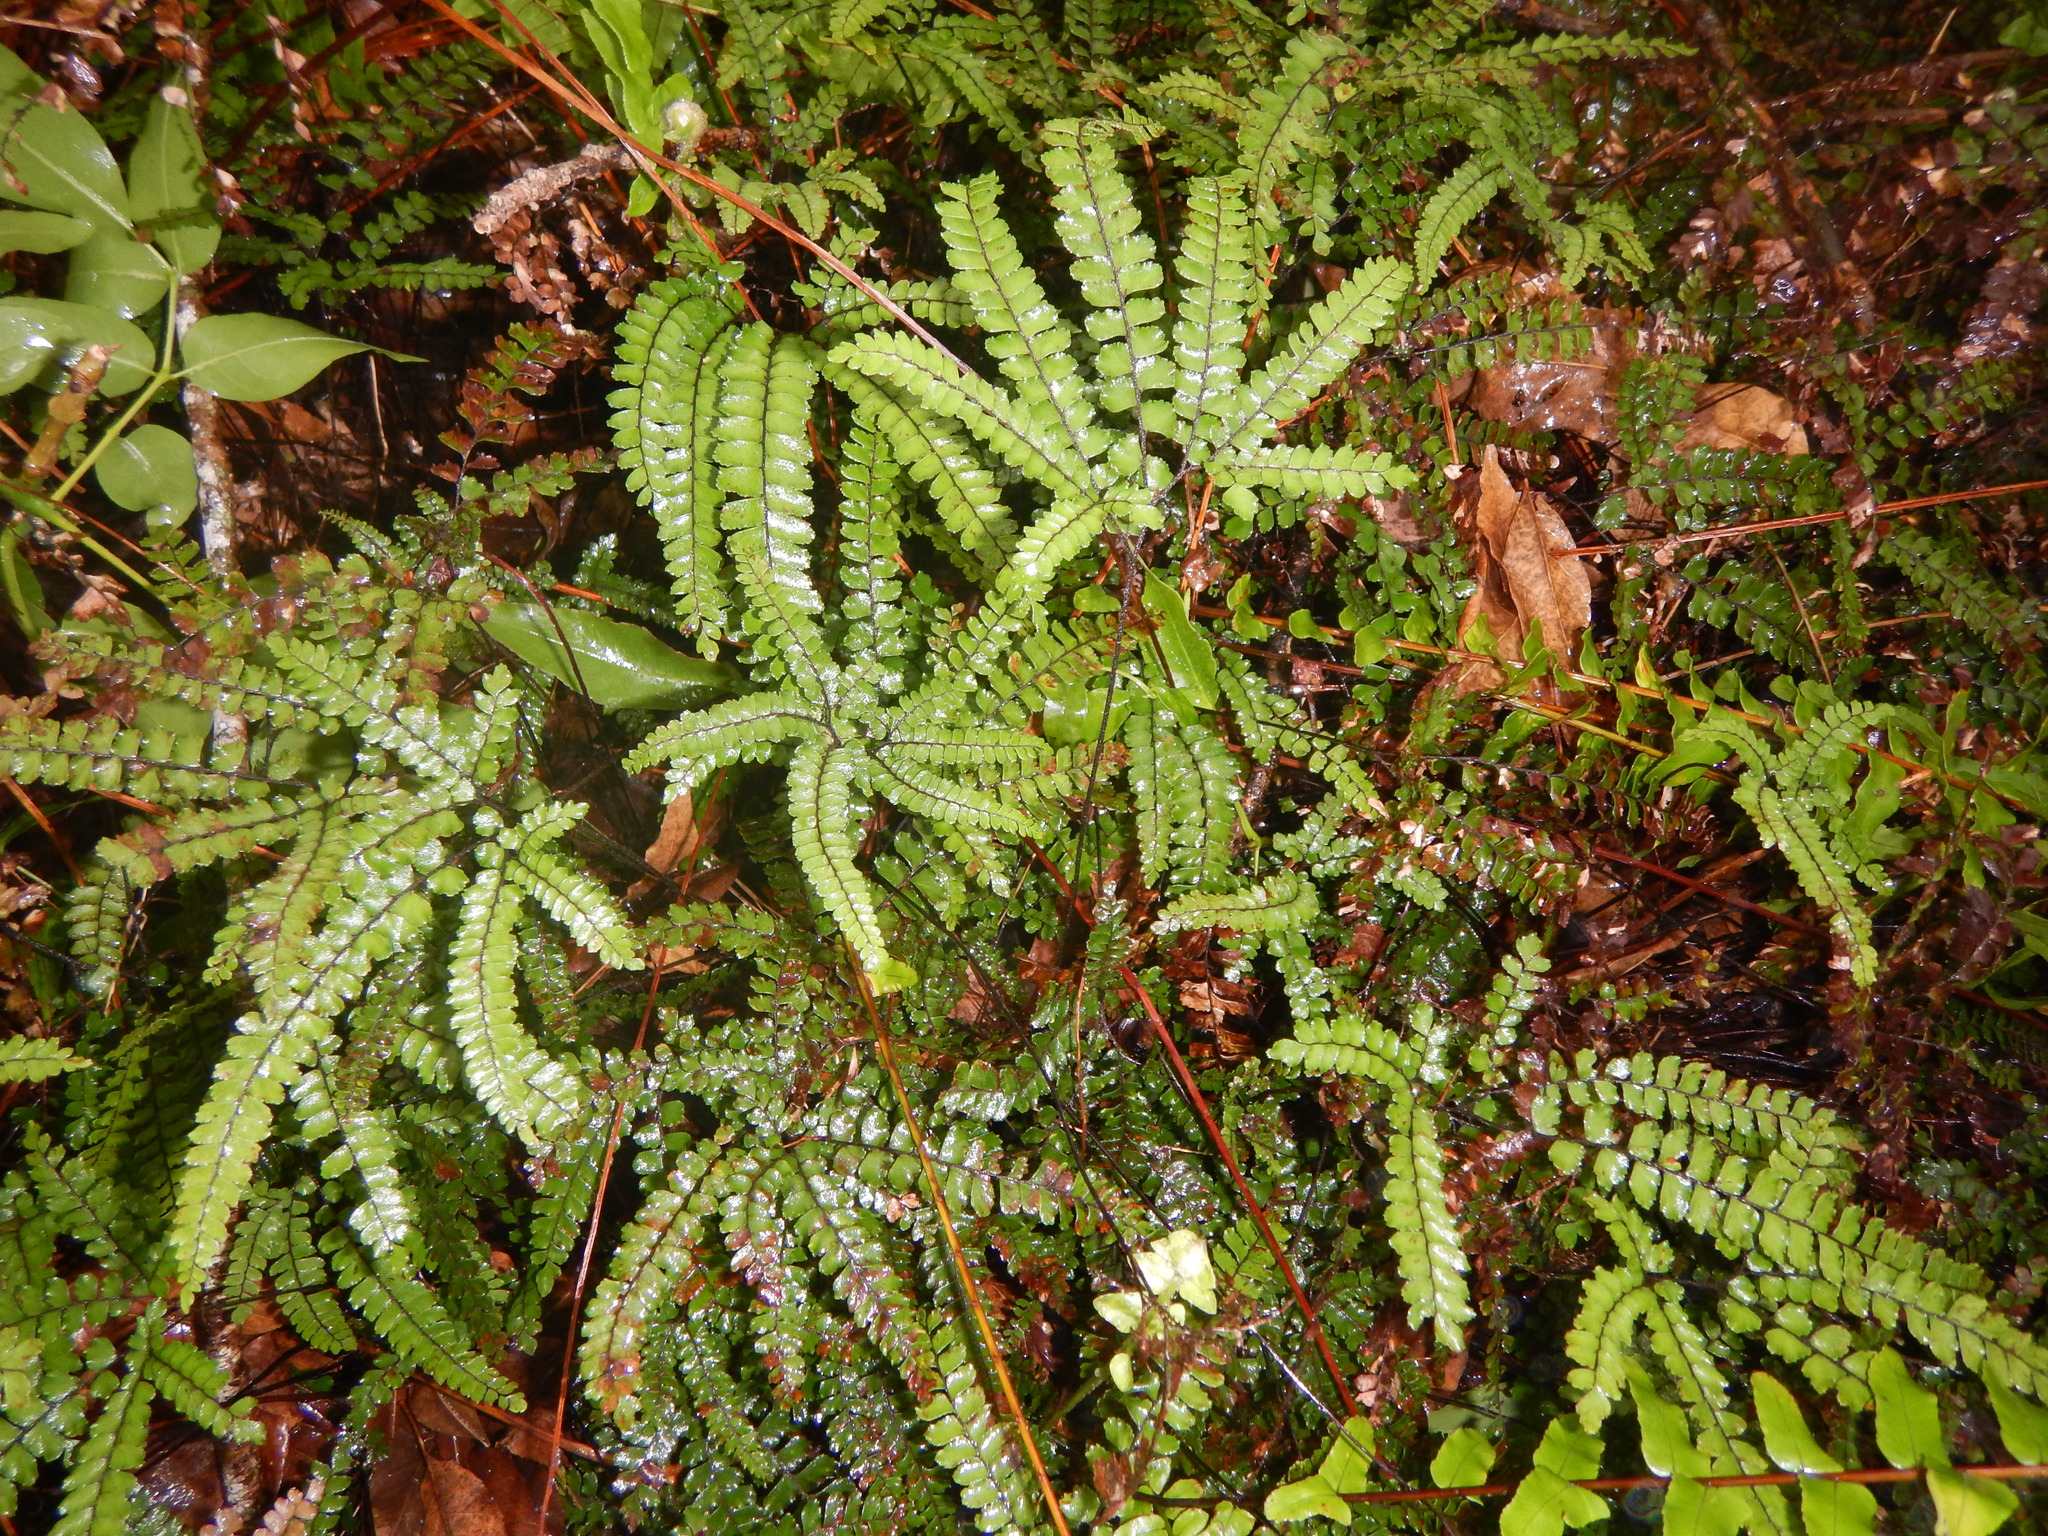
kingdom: Plantae
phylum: Tracheophyta
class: Polypodiopsida
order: Polypodiales
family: Pteridaceae
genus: Adiantum
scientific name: Adiantum hispidulum
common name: Rough maidenhair
